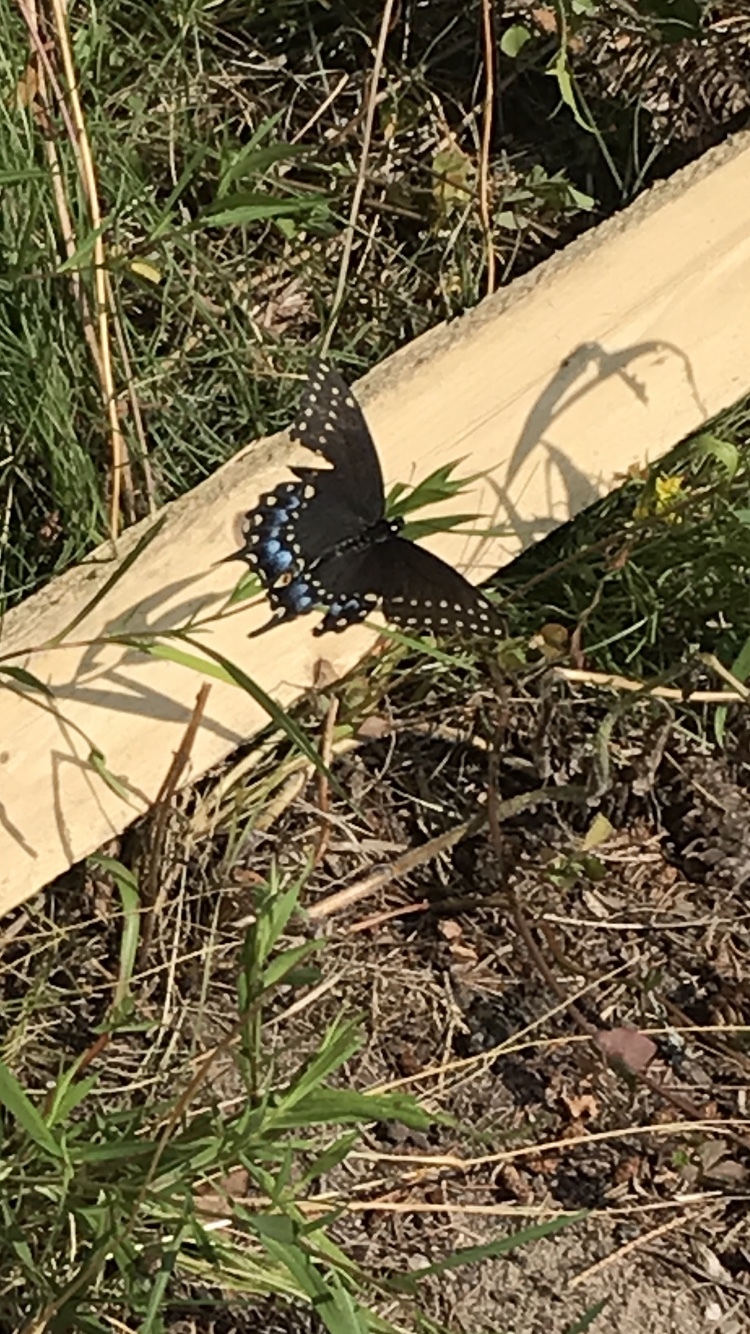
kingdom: Animalia
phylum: Arthropoda
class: Insecta
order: Lepidoptera
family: Papilionidae
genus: Papilio
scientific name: Papilio polyxenes
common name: Black swallowtail
